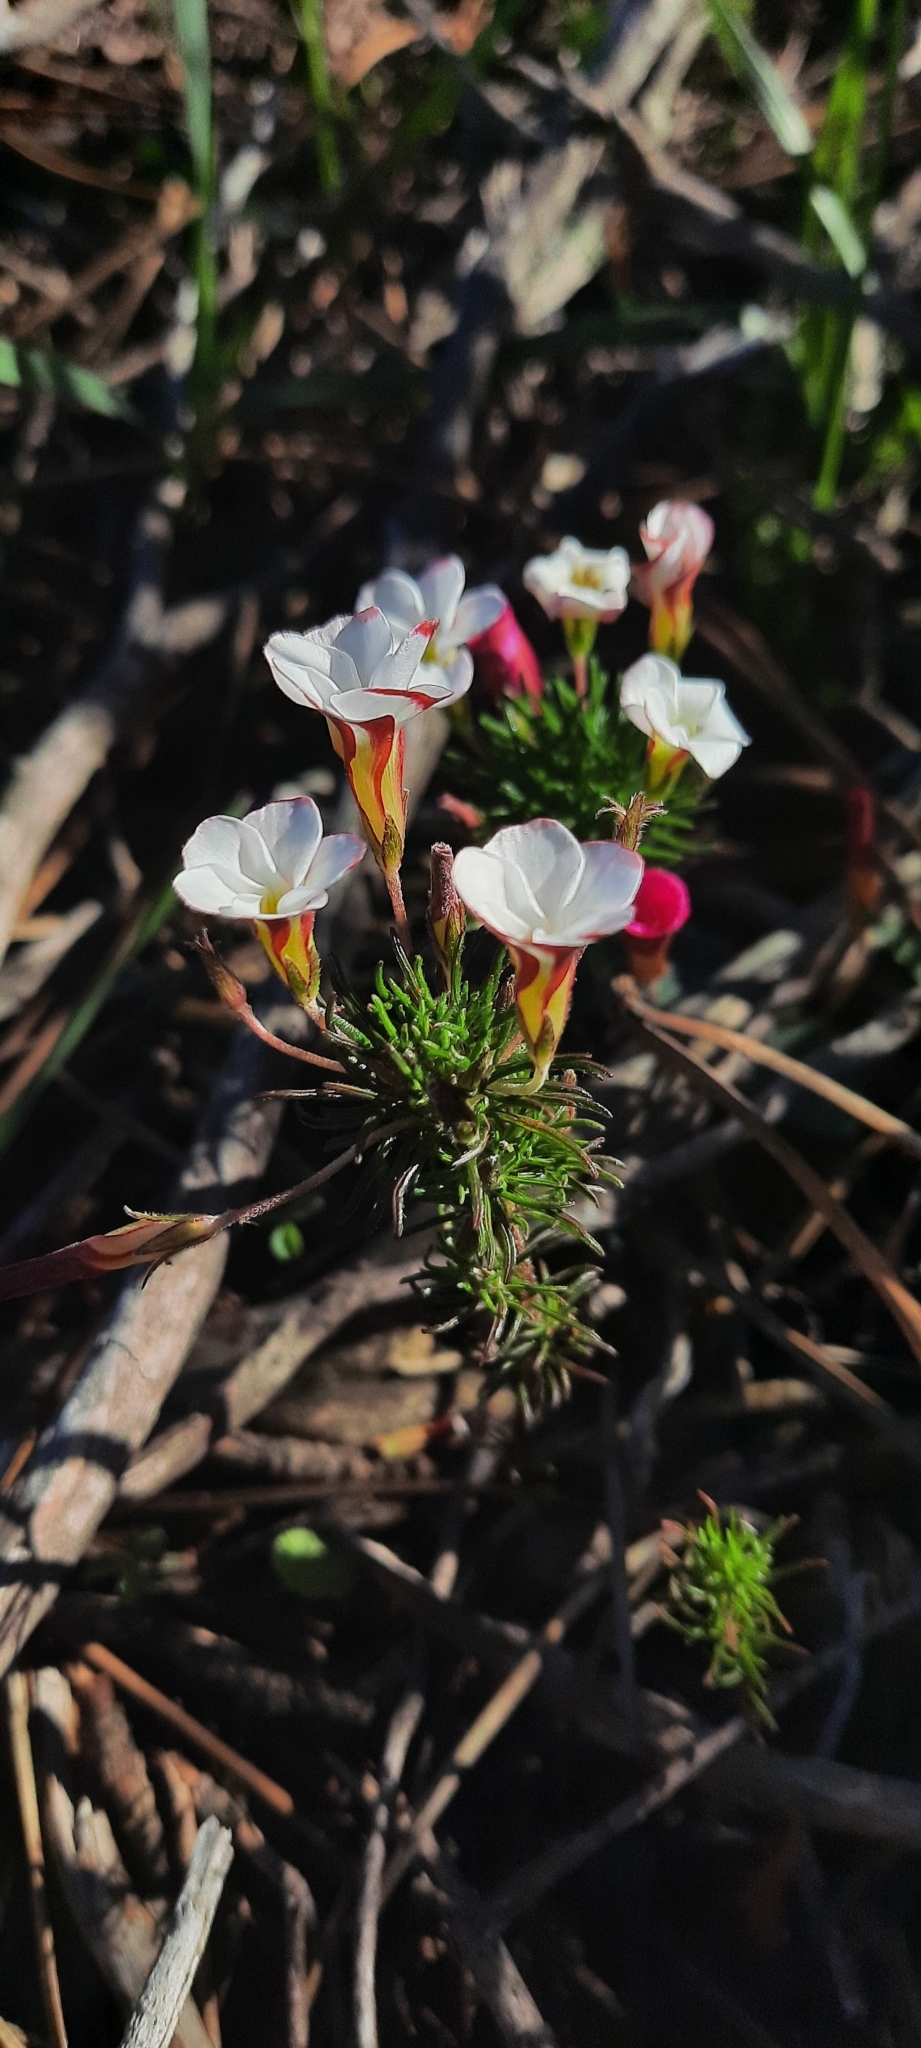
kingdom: Plantae
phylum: Tracheophyta
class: Magnoliopsida
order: Oxalidales
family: Oxalidaceae
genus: Oxalis
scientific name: Oxalis tenuifolia
